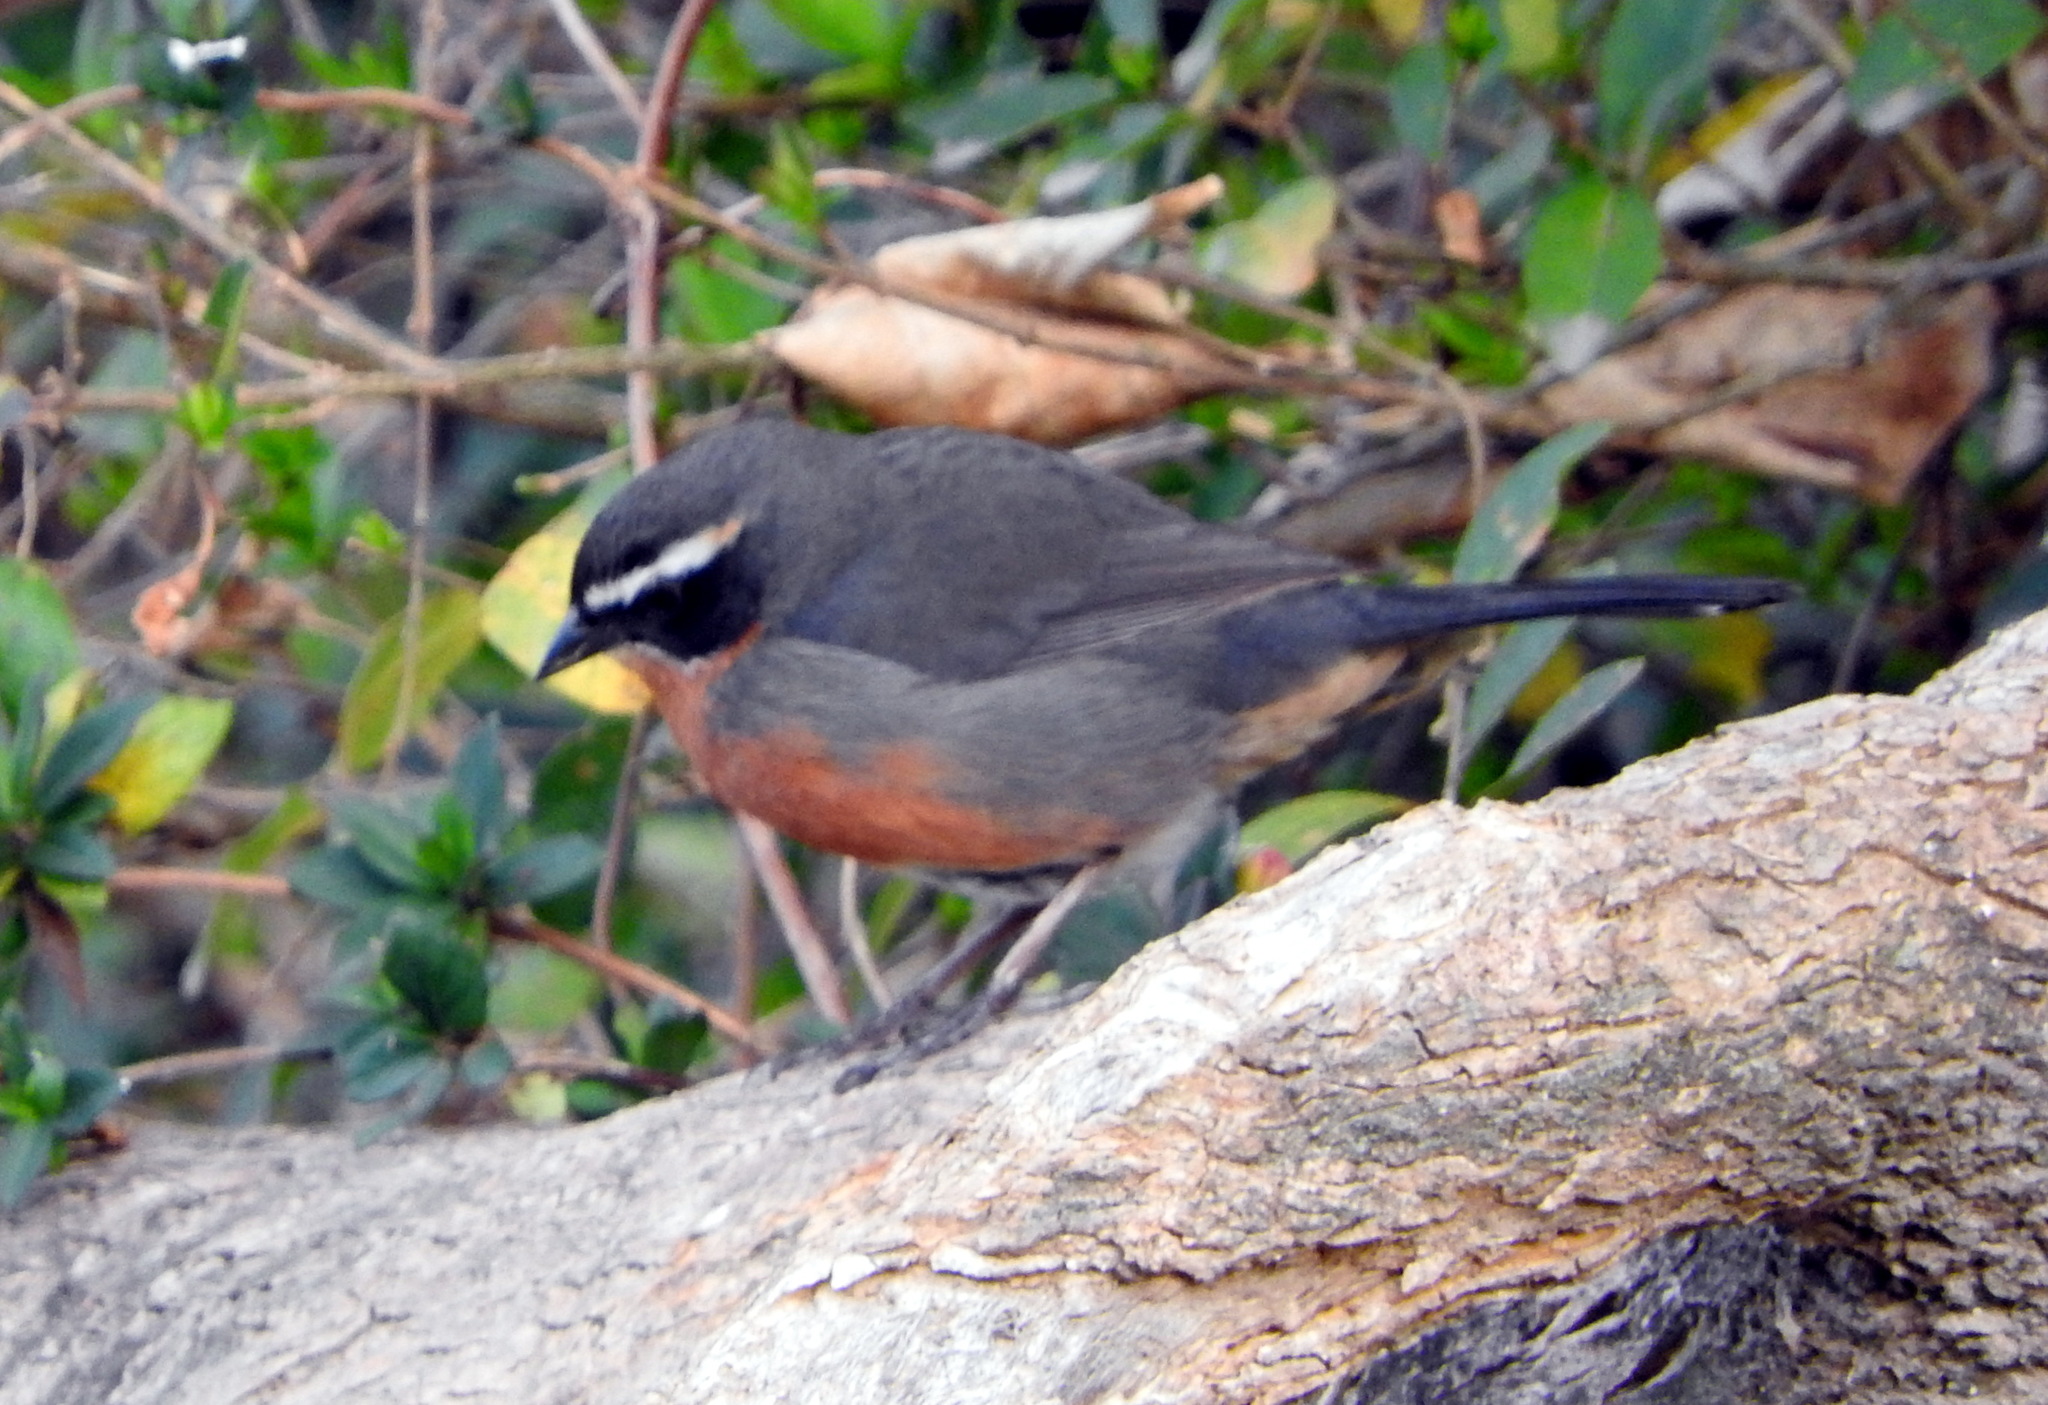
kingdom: Animalia
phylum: Chordata
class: Aves
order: Passeriformes
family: Thraupidae
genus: Poospiza
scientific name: Poospiza nigrorufa
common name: Black-and-rufous warbling finch
